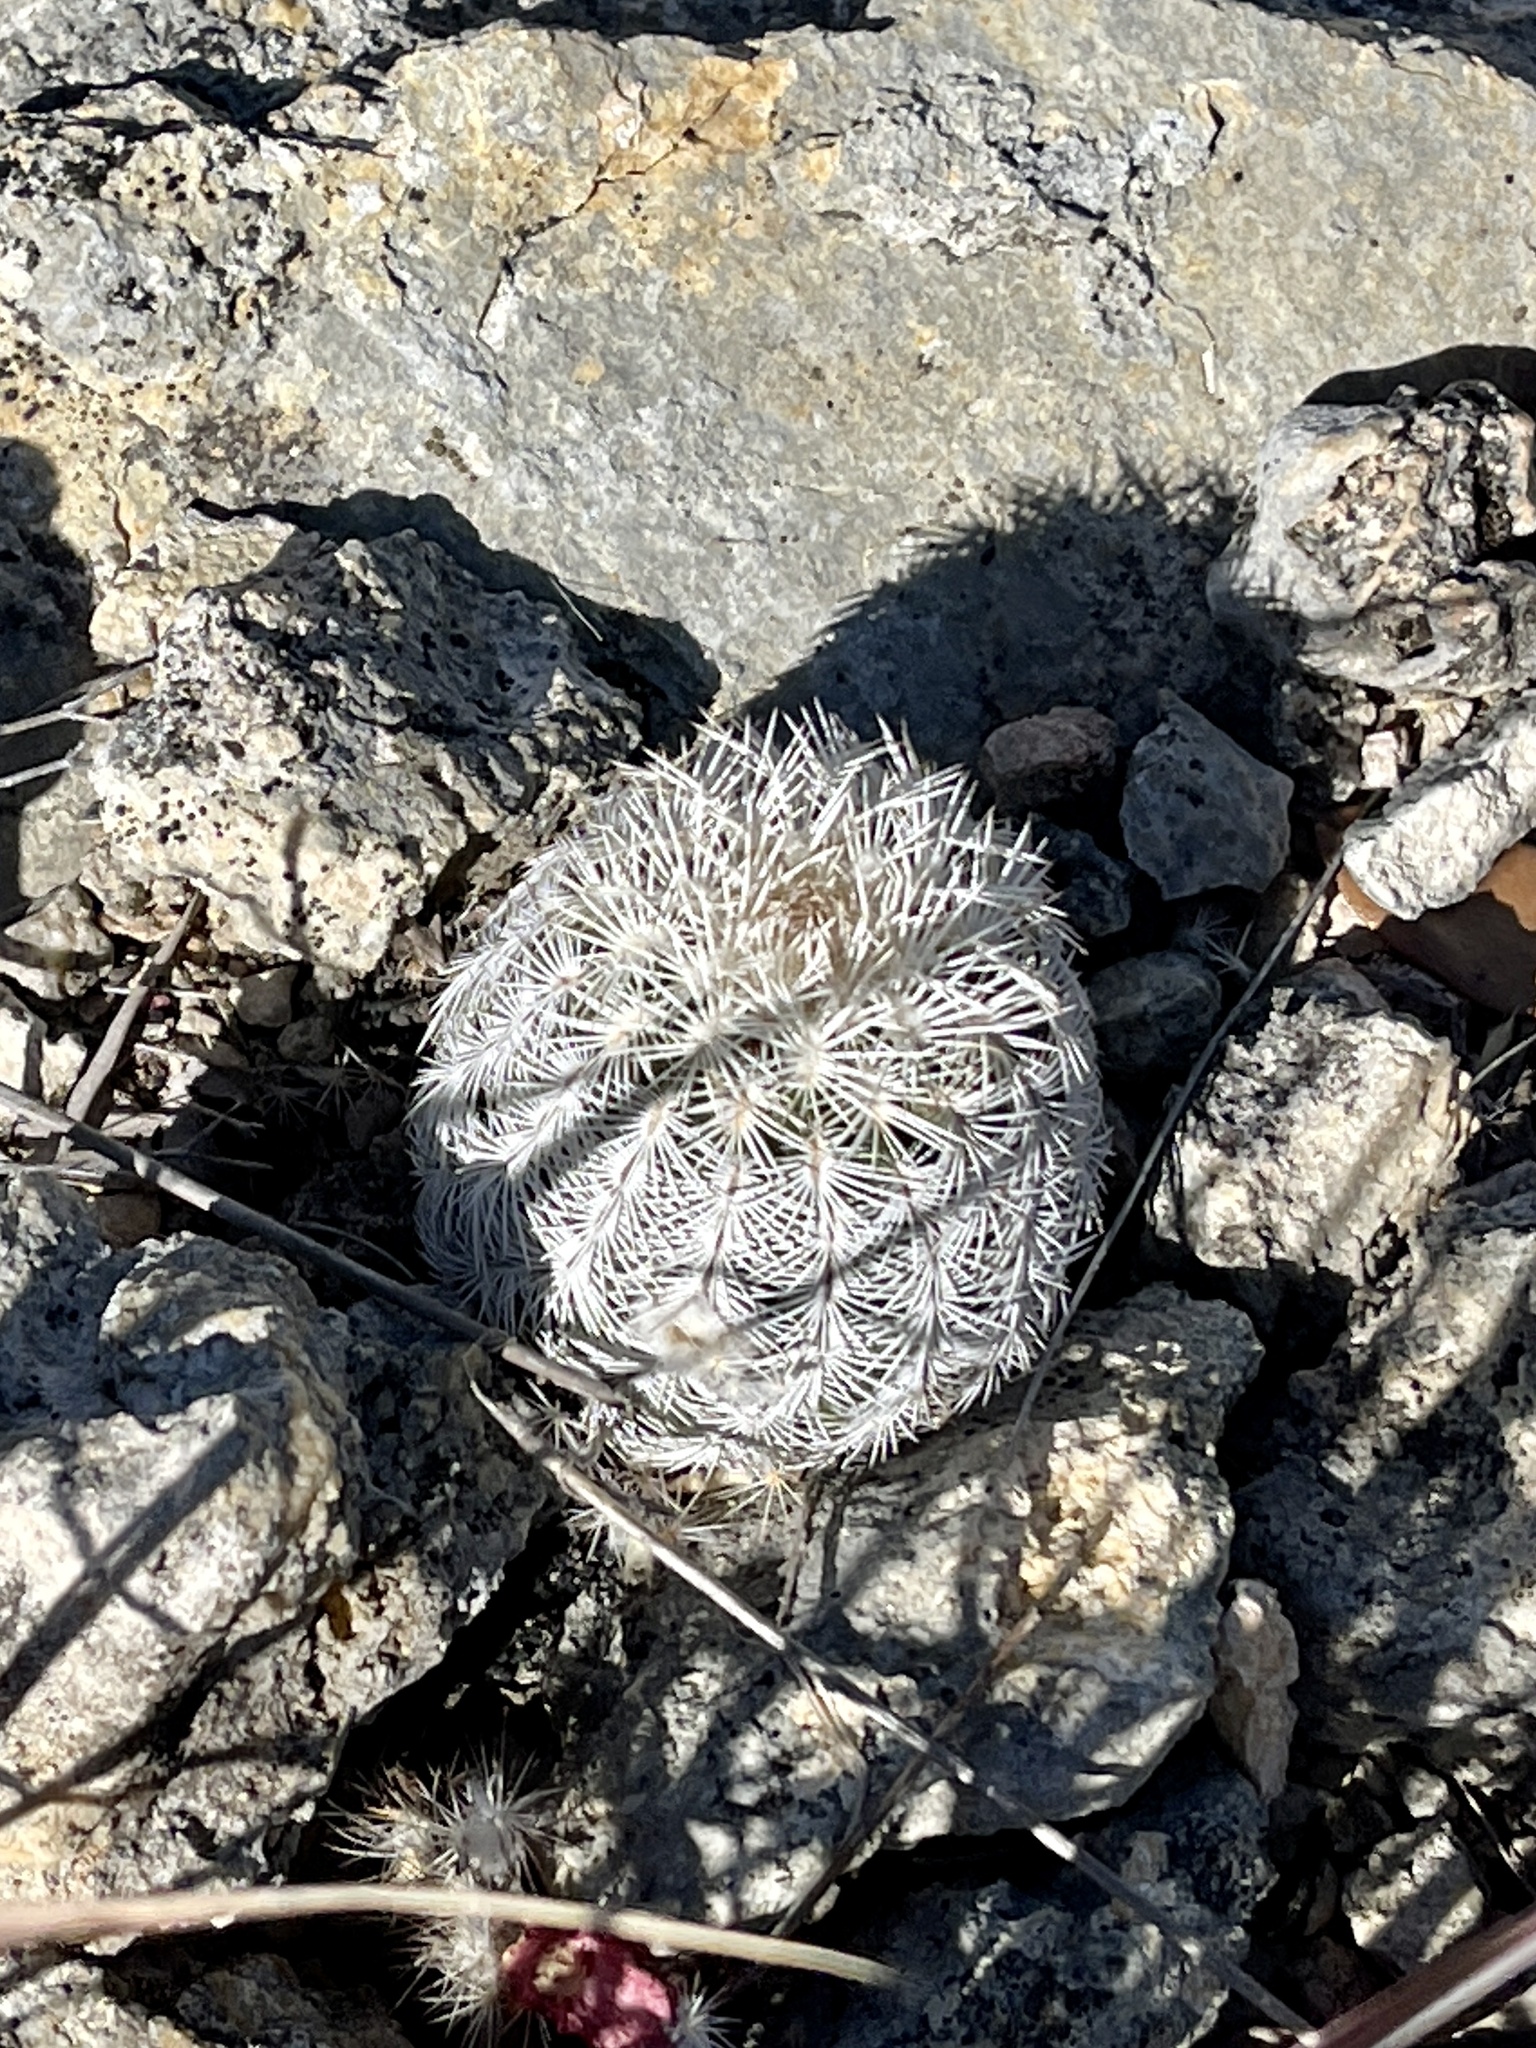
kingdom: Plantae
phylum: Tracheophyta
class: Magnoliopsida
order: Caryophyllales
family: Cactaceae
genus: Echinocereus
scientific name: Echinocereus reichenbachii
